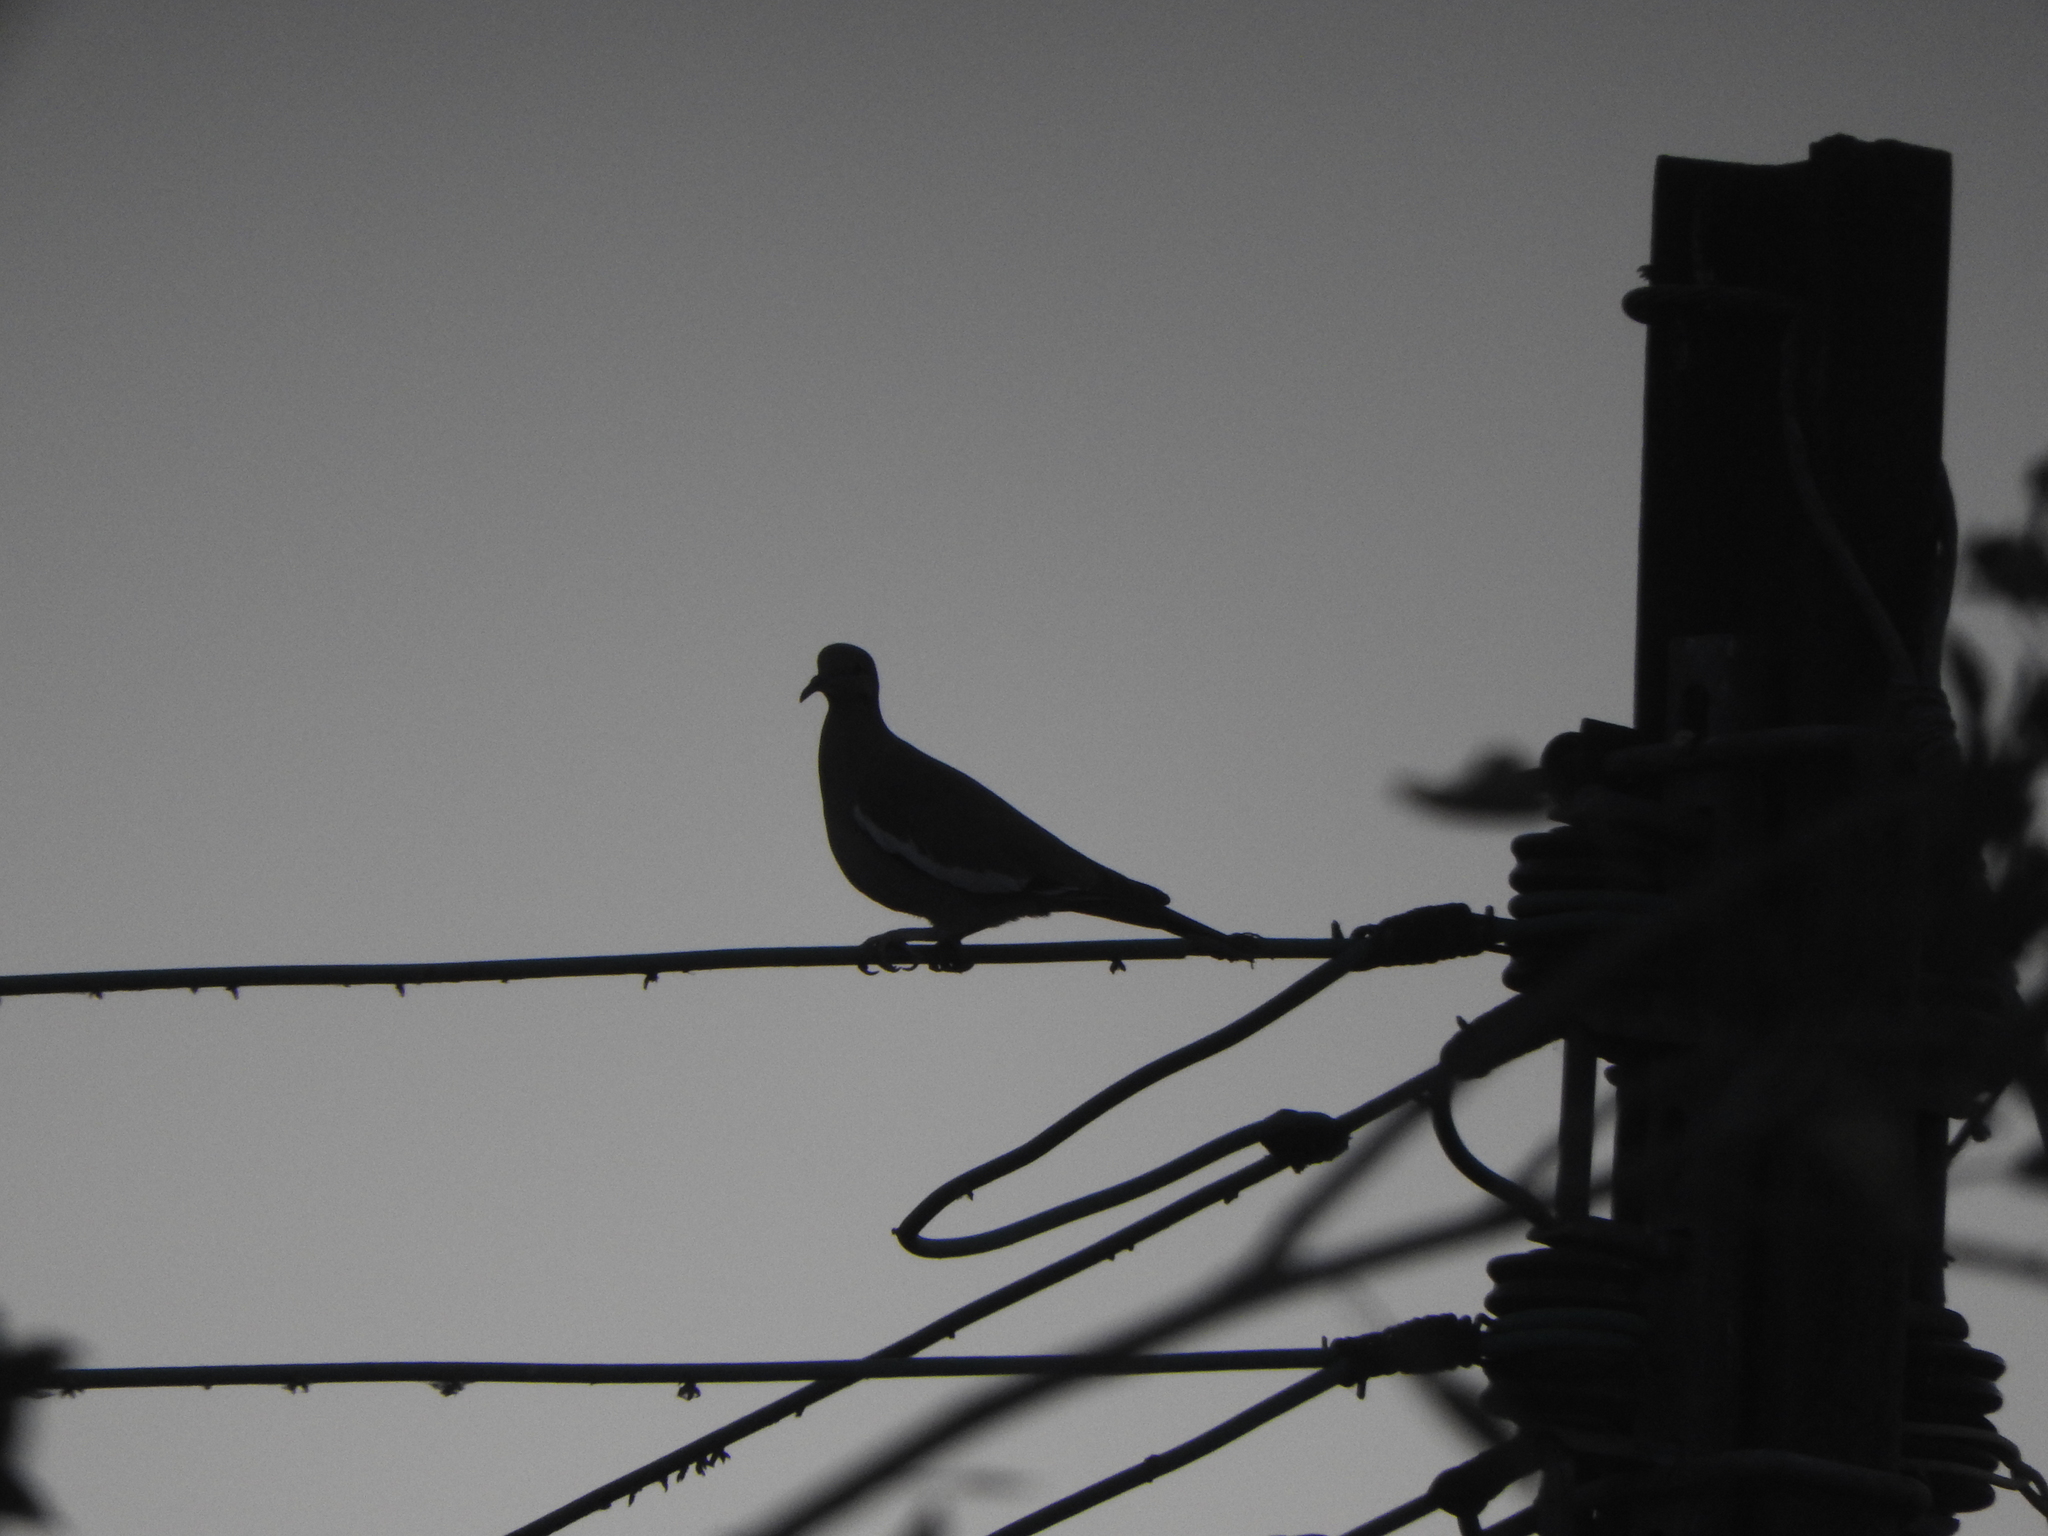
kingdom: Animalia
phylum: Chordata
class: Aves
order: Columbiformes
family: Columbidae
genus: Zenaida
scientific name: Zenaida asiatica
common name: White-winged dove
